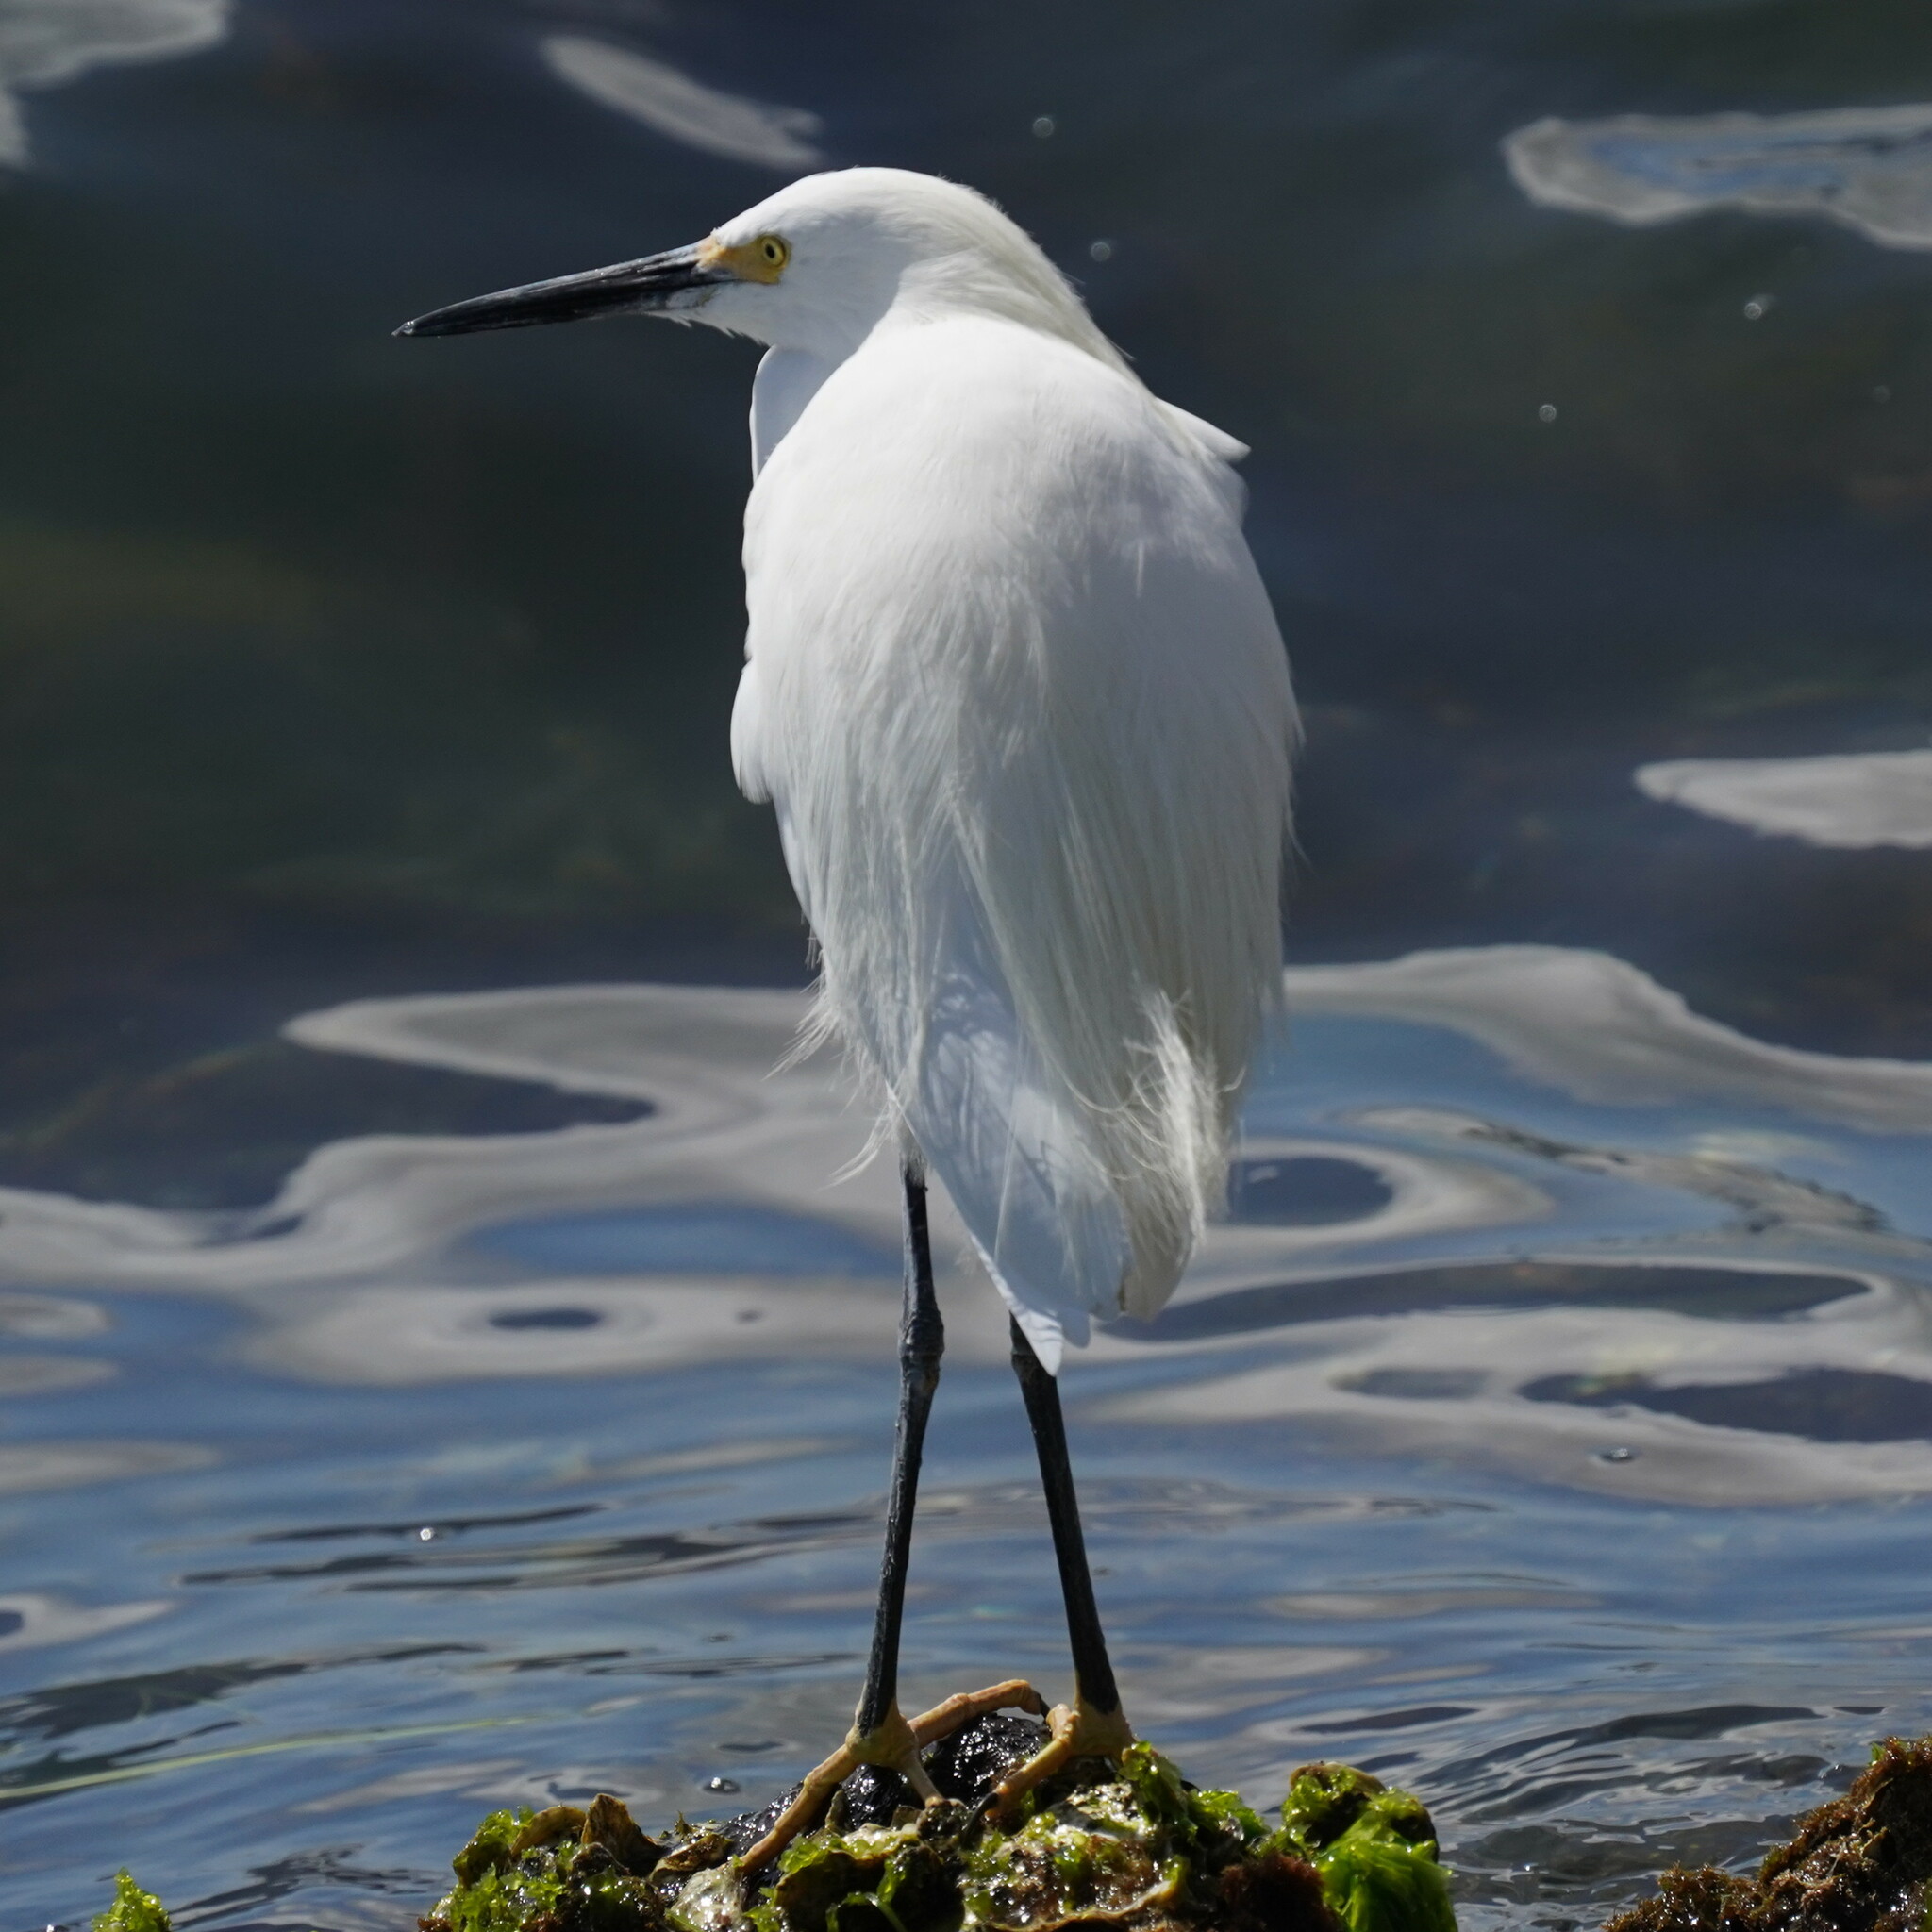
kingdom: Animalia
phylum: Chordata
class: Aves
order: Pelecaniformes
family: Ardeidae
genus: Egretta
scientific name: Egretta thula
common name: Snowy egret
